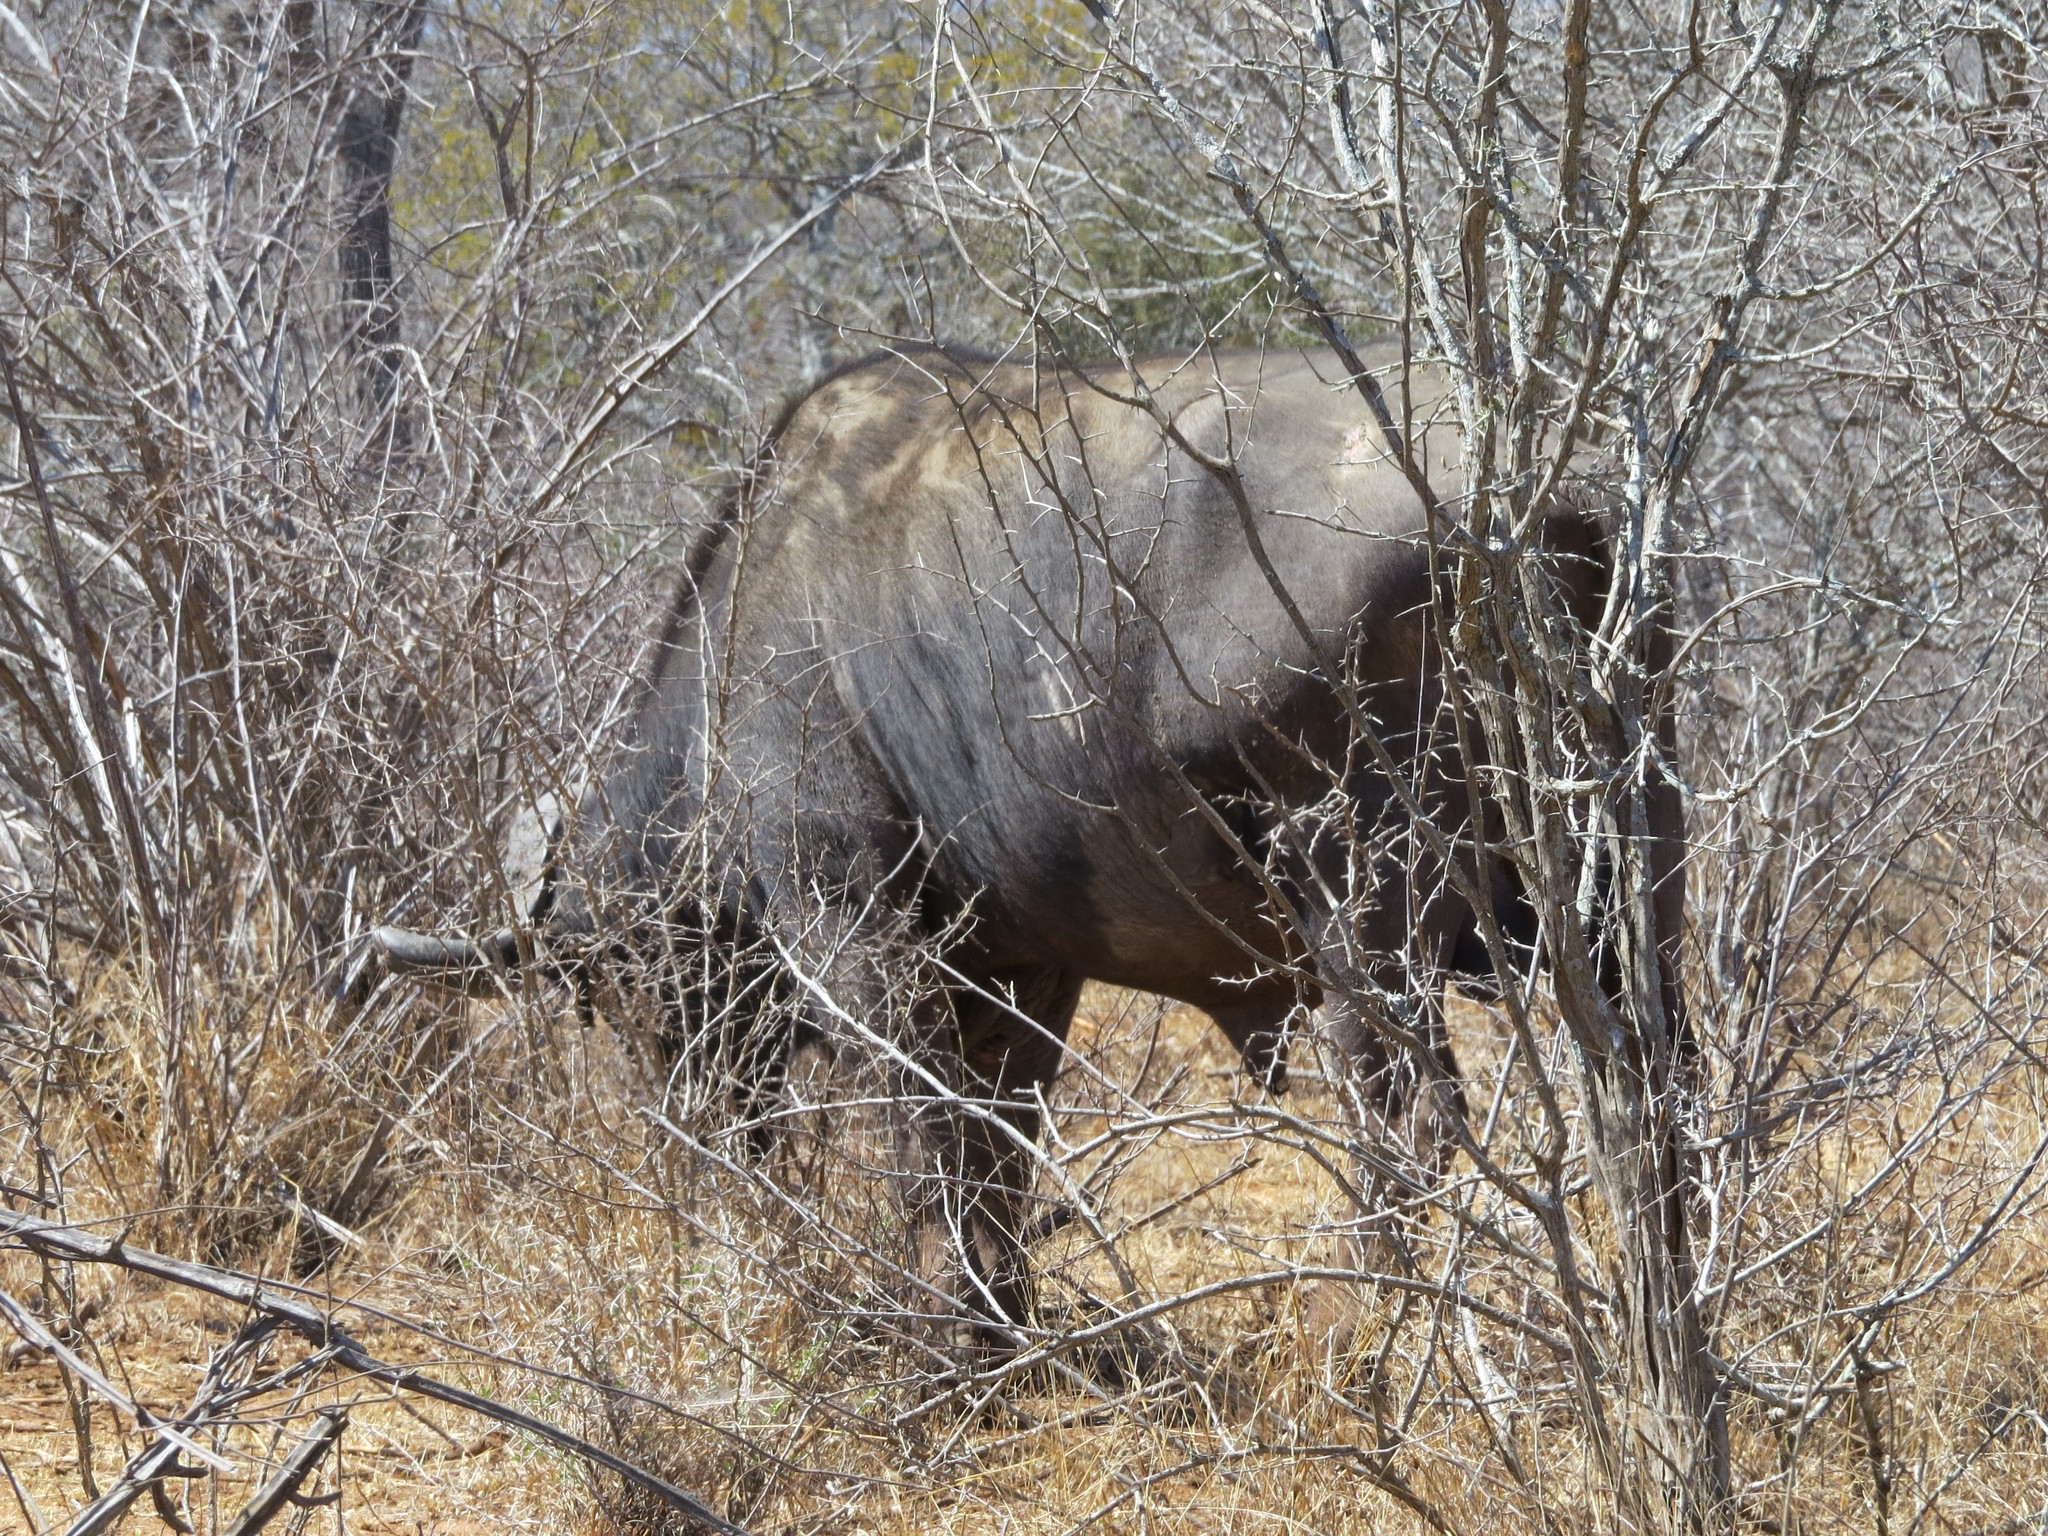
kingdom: Animalia
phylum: Chordata
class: Mammalia
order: Artiodactyla
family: Bovidae
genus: Syncerus
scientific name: Syncerus caffer
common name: African buffalo
